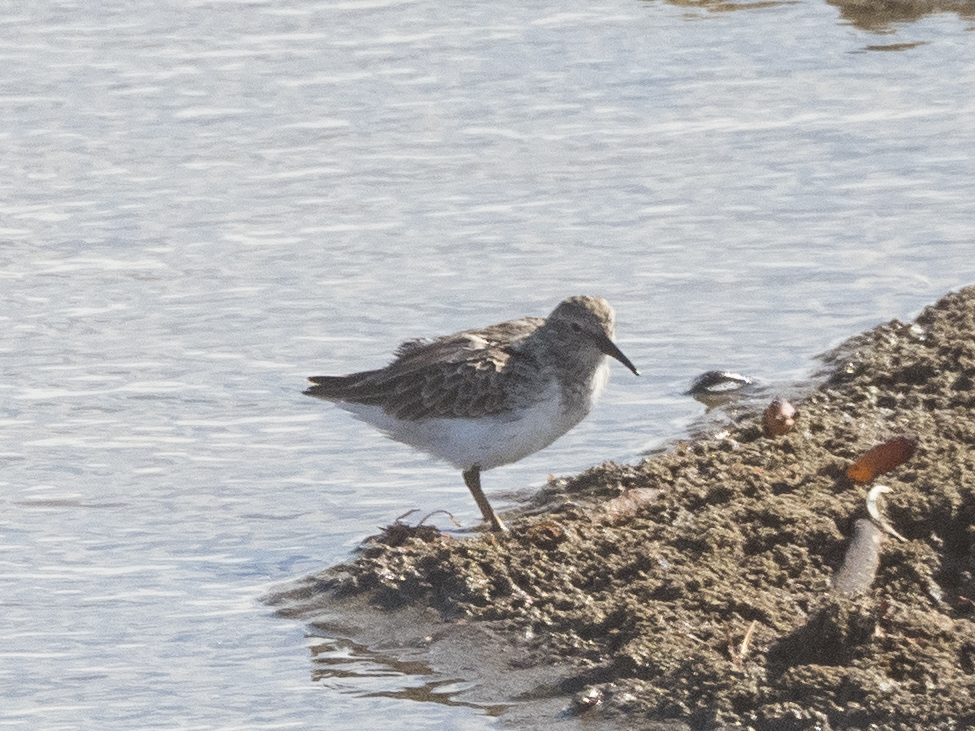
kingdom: Animalia
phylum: Chordata
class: Aves
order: Charadriiformes
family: Scolopacidae
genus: Calidris
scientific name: Calidris minutilla
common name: Least sandpiper
